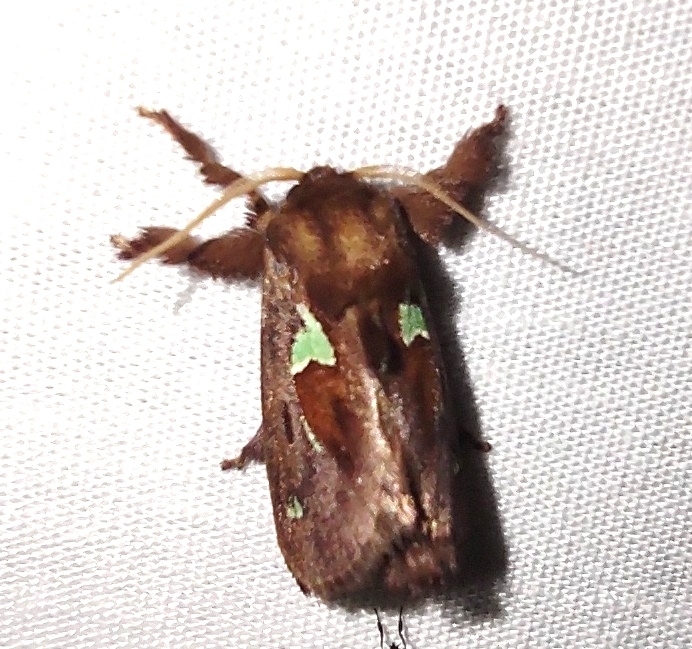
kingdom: Animalia
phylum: Arthropoda
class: Insecta
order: Lepidoptera
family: Limacodidae
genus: Euclea
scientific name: Euclea delphinii
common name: Spiny oak-slug moth
